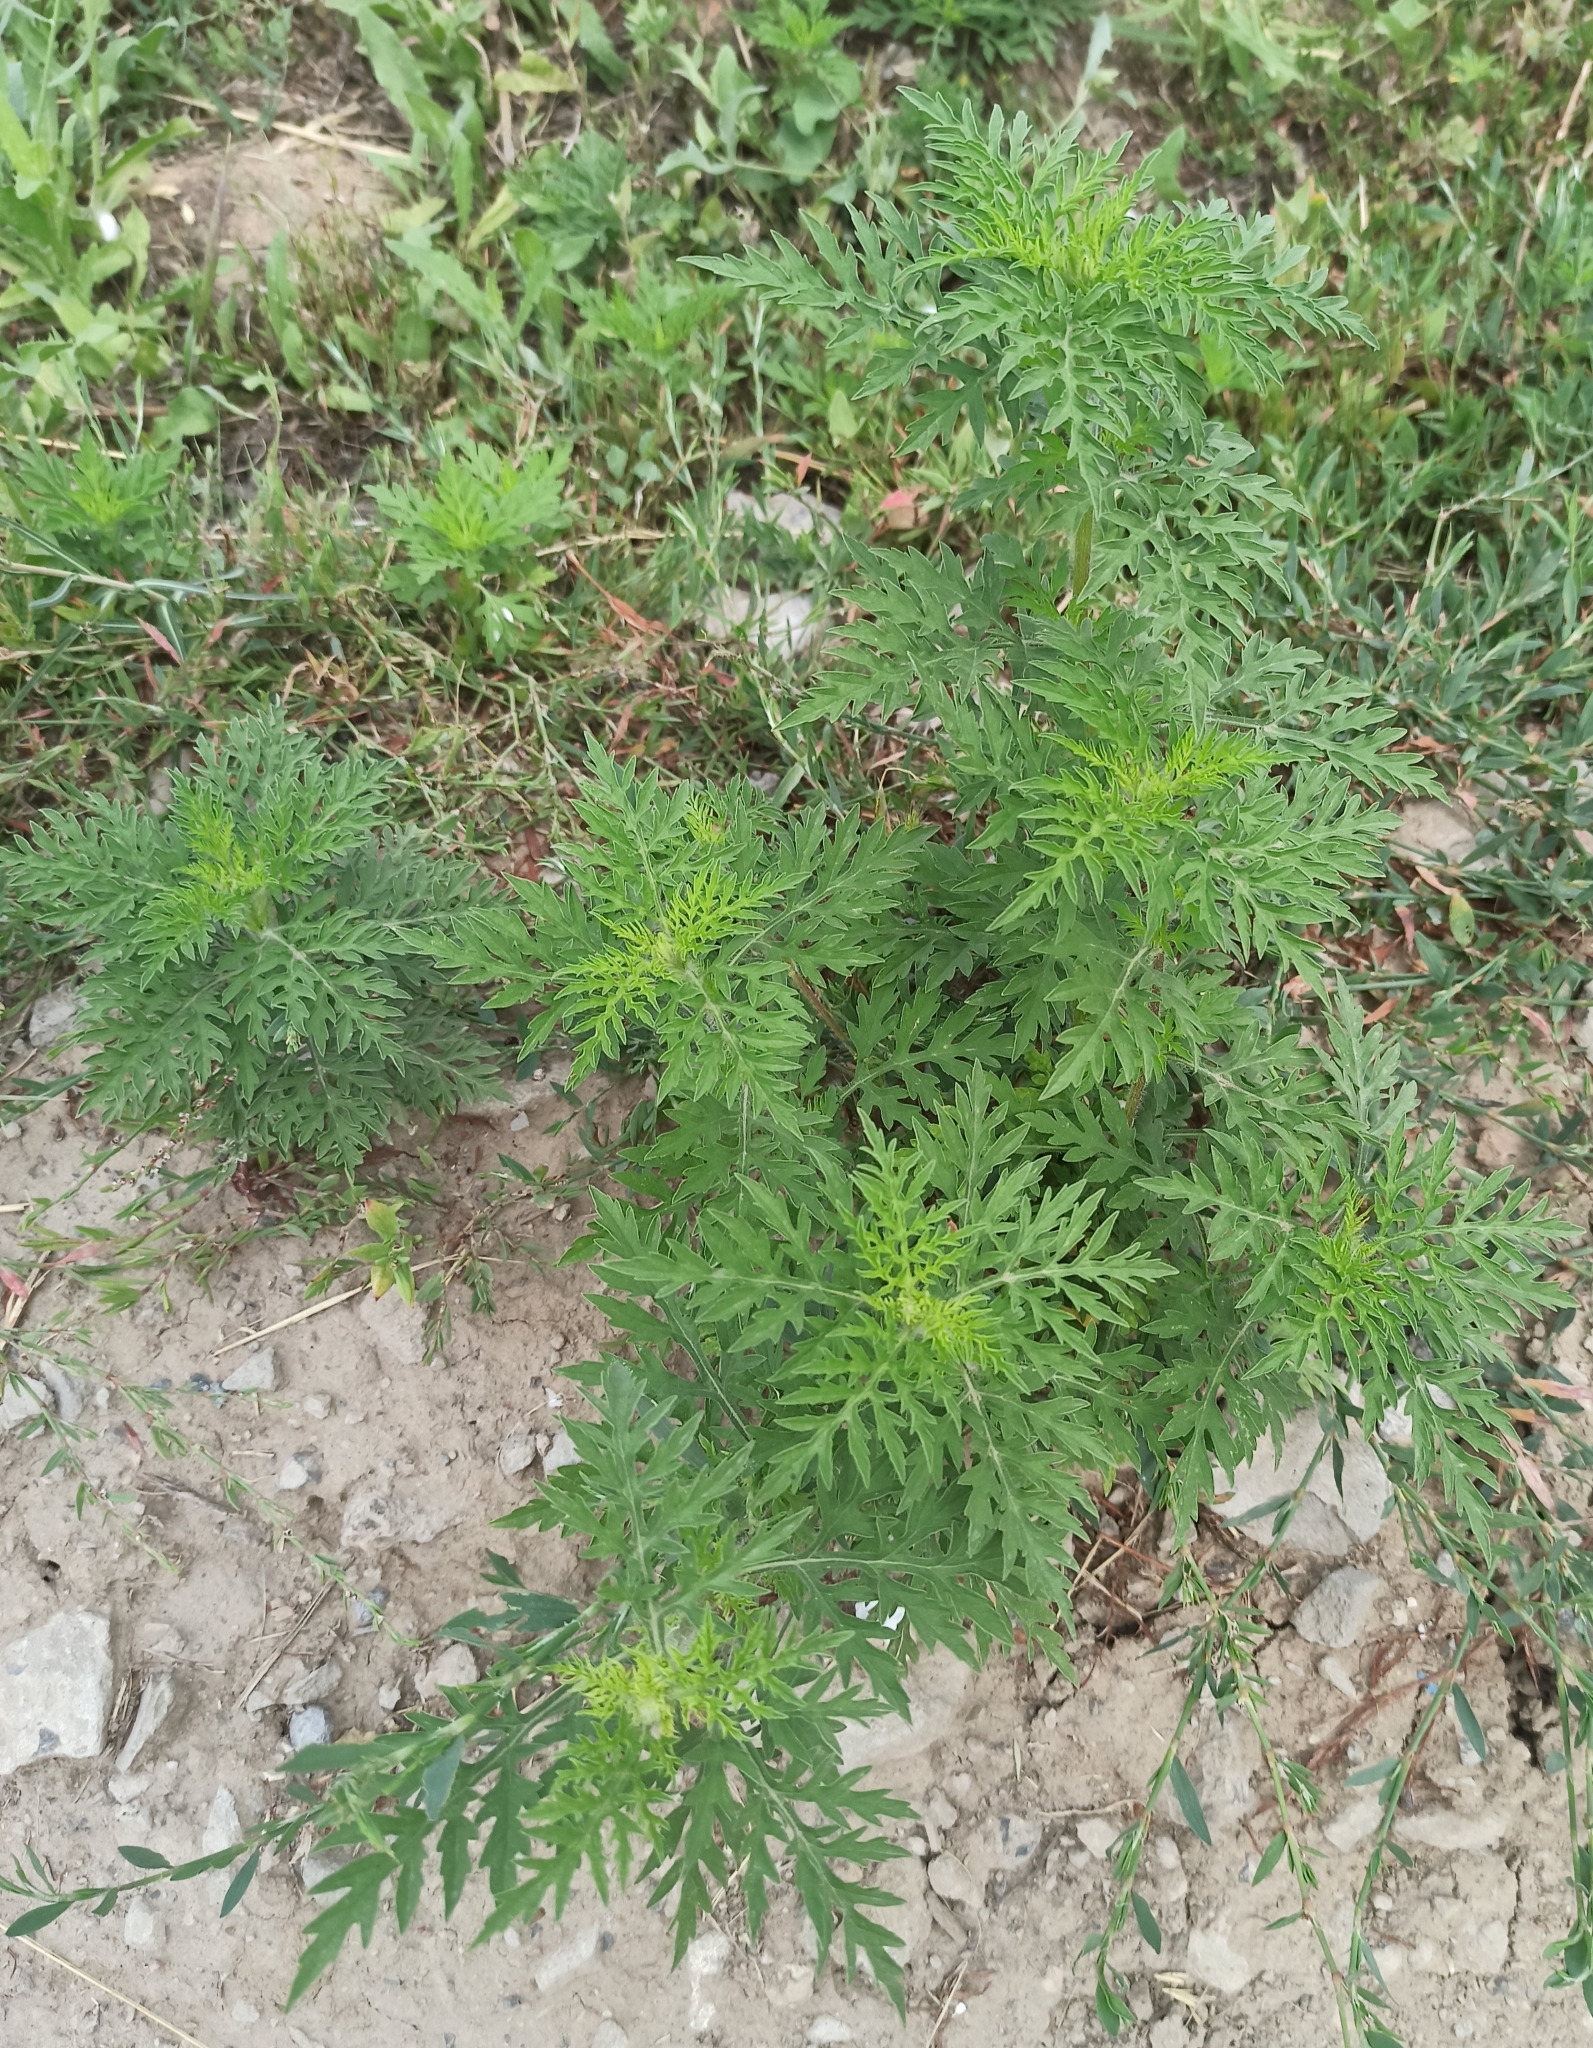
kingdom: Plantae
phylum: Tracheophyta
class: Magnoliopsida
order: Asterales
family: Asteraceae
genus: Ambrosia
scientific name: Ambrosia artemisiifolia
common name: Annual ragweed
